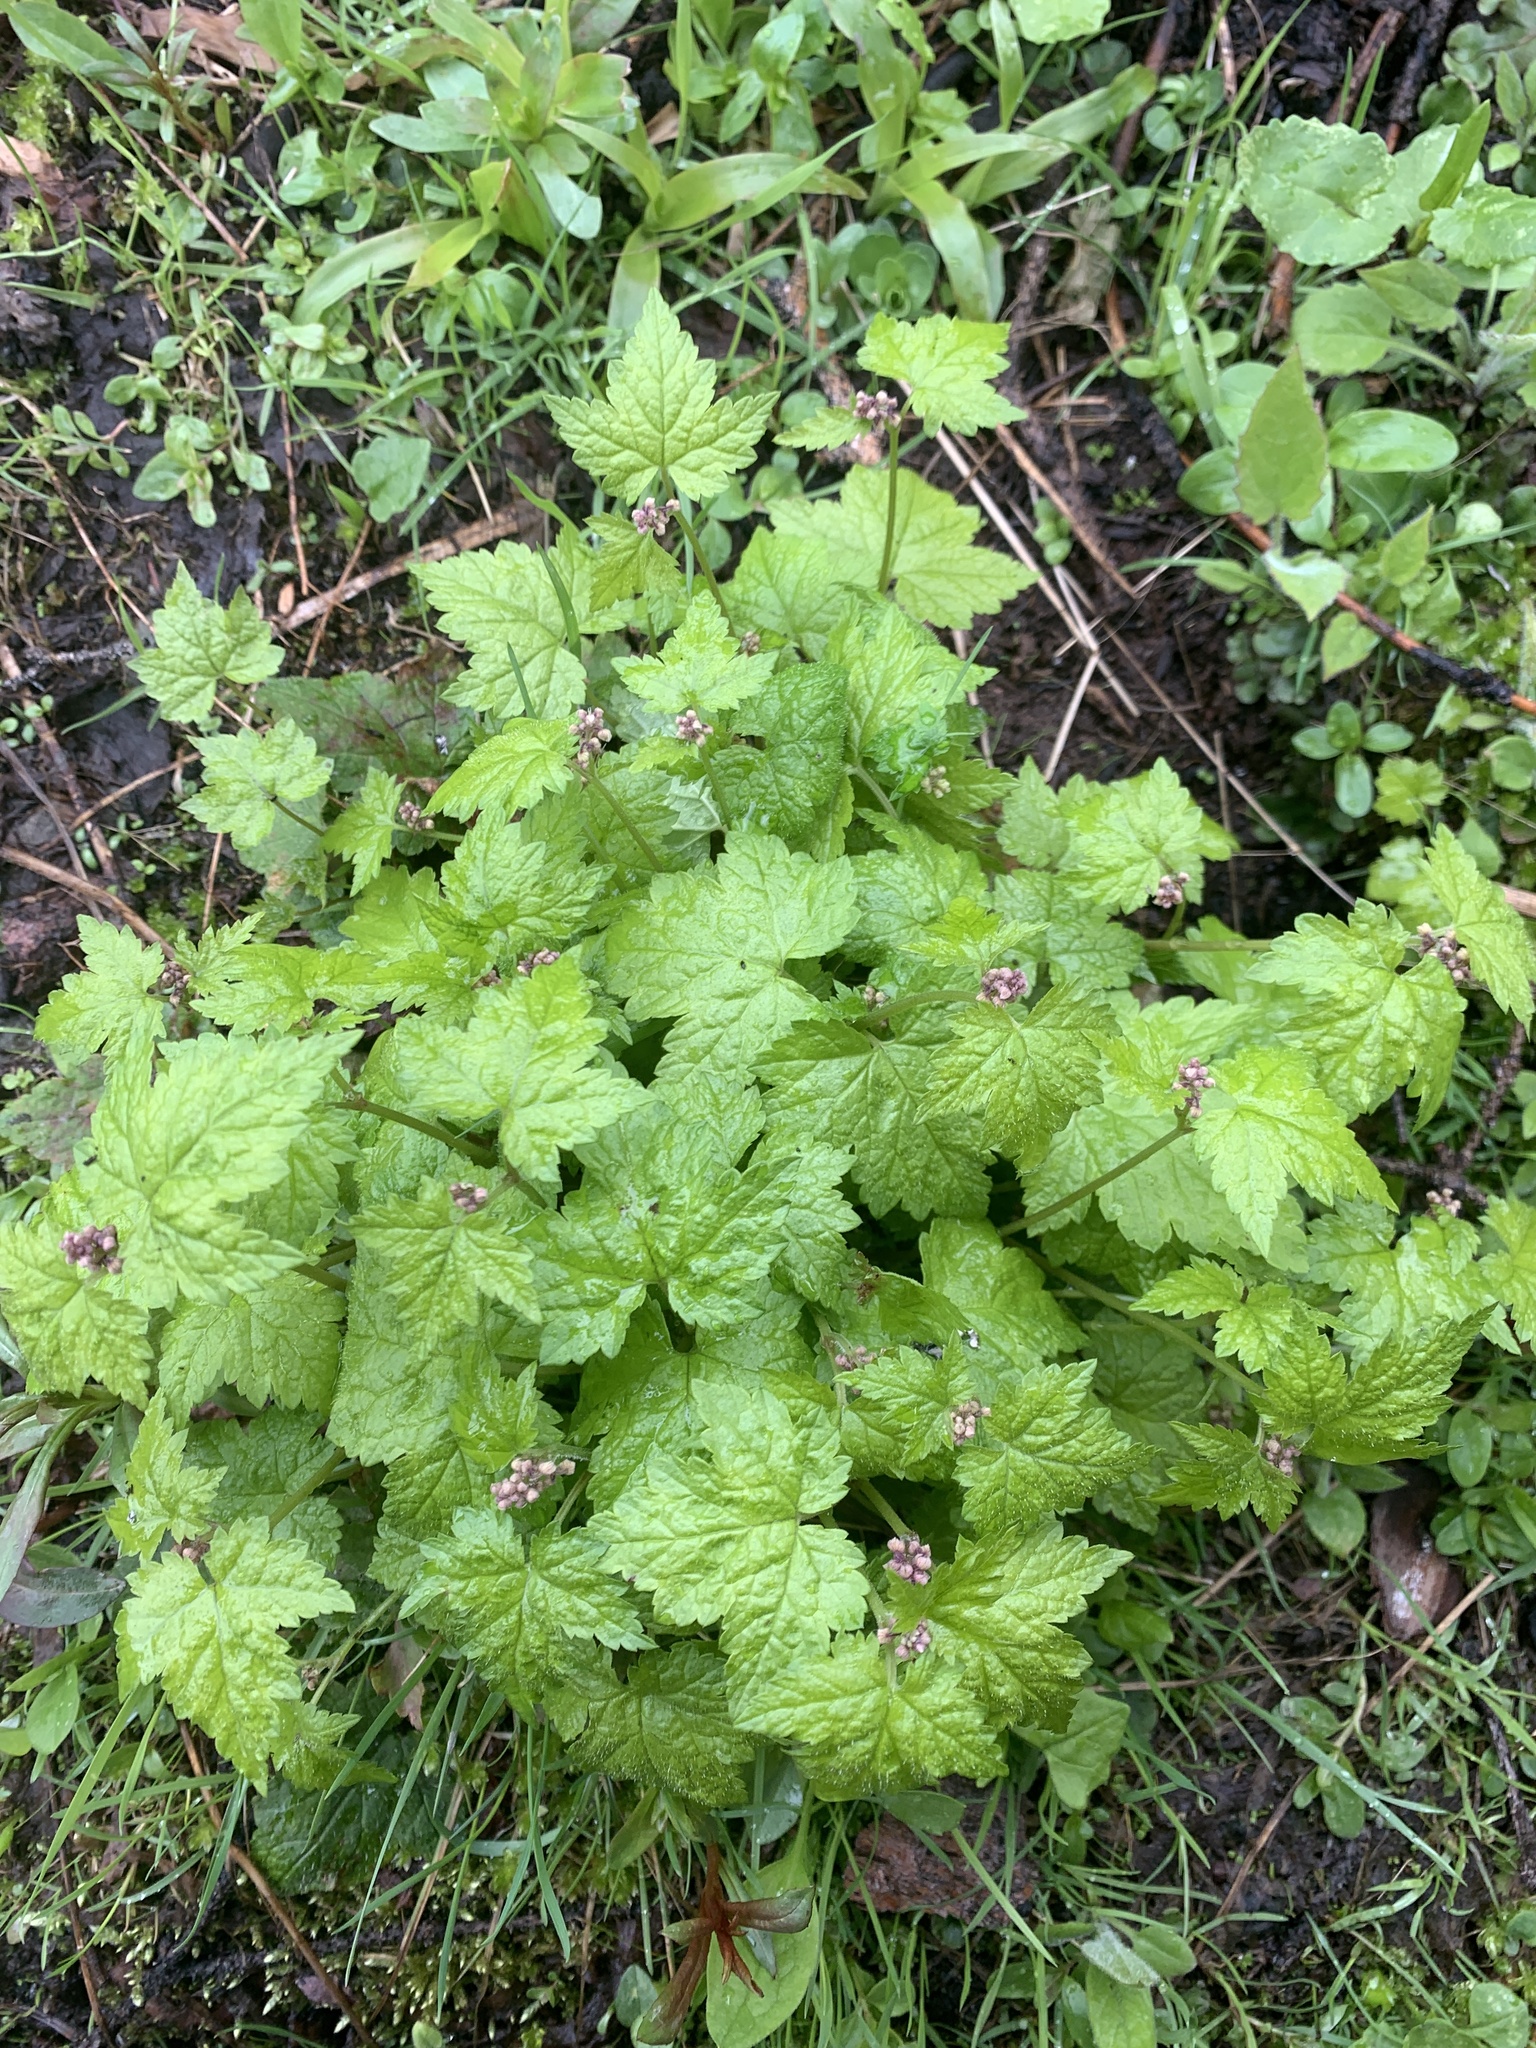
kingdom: Plantae
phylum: Tracheophyta
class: Magnoliopsida
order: Saxifragales
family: Saxifragaceae
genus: Tiarella
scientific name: Tiarella trifoliata
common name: Sugar-scoop
